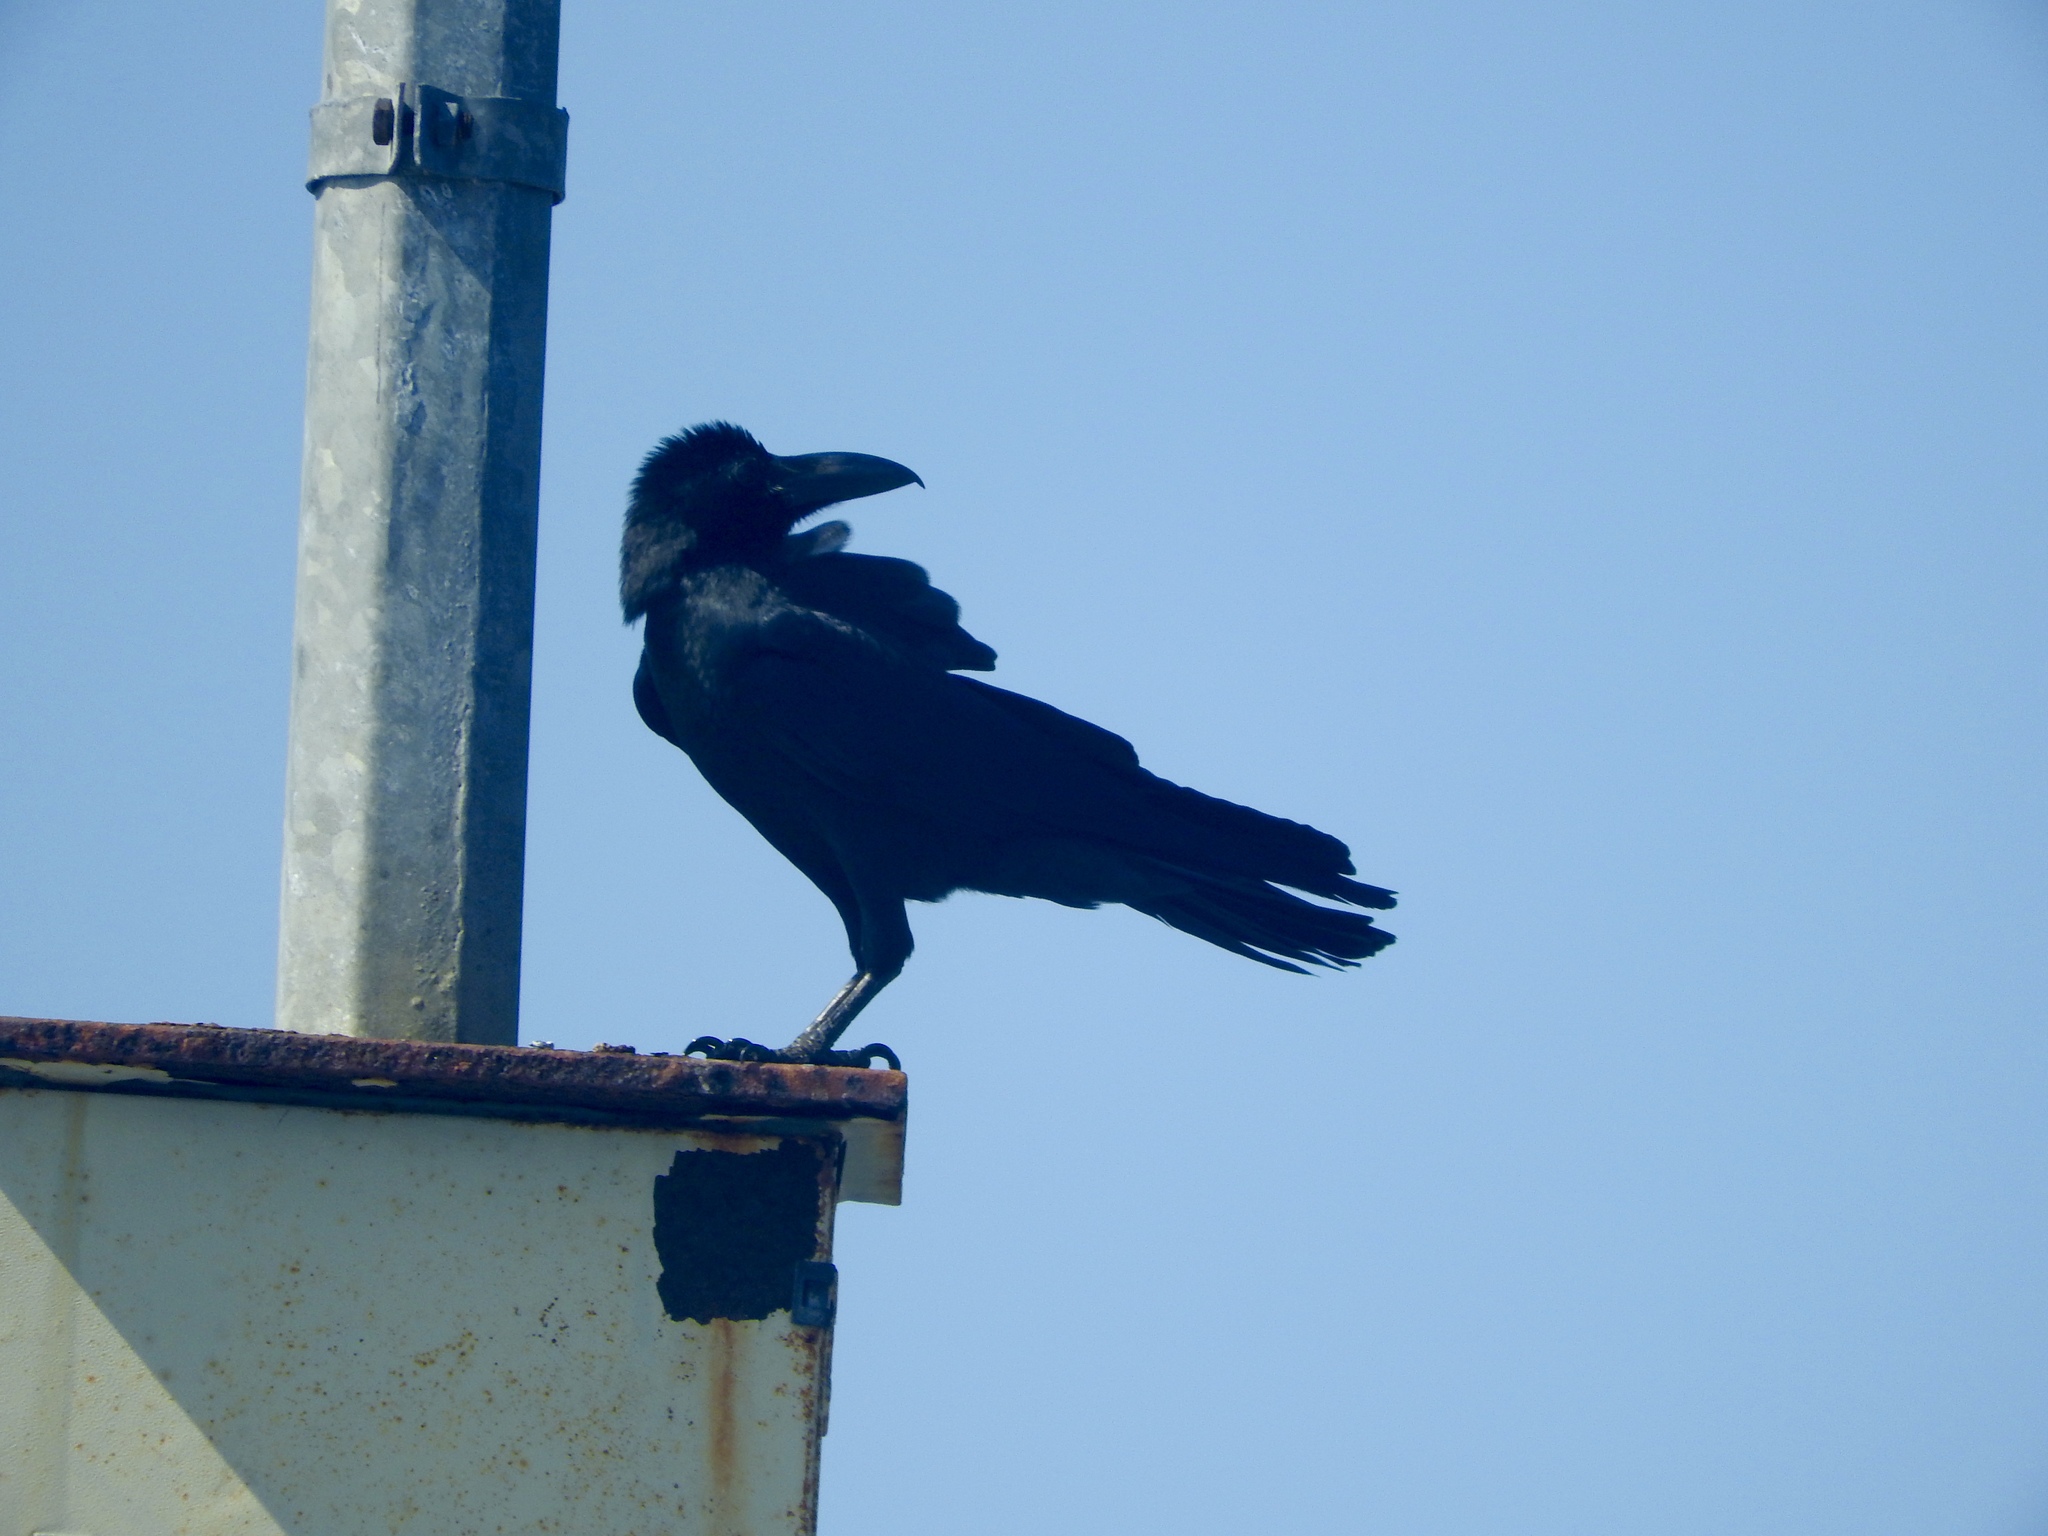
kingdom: Animalia
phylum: Chordata
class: Aves
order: Passeriformes
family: Corvidae
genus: Corvus
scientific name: Corvus macrorhynchos
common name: Large-billed crow
